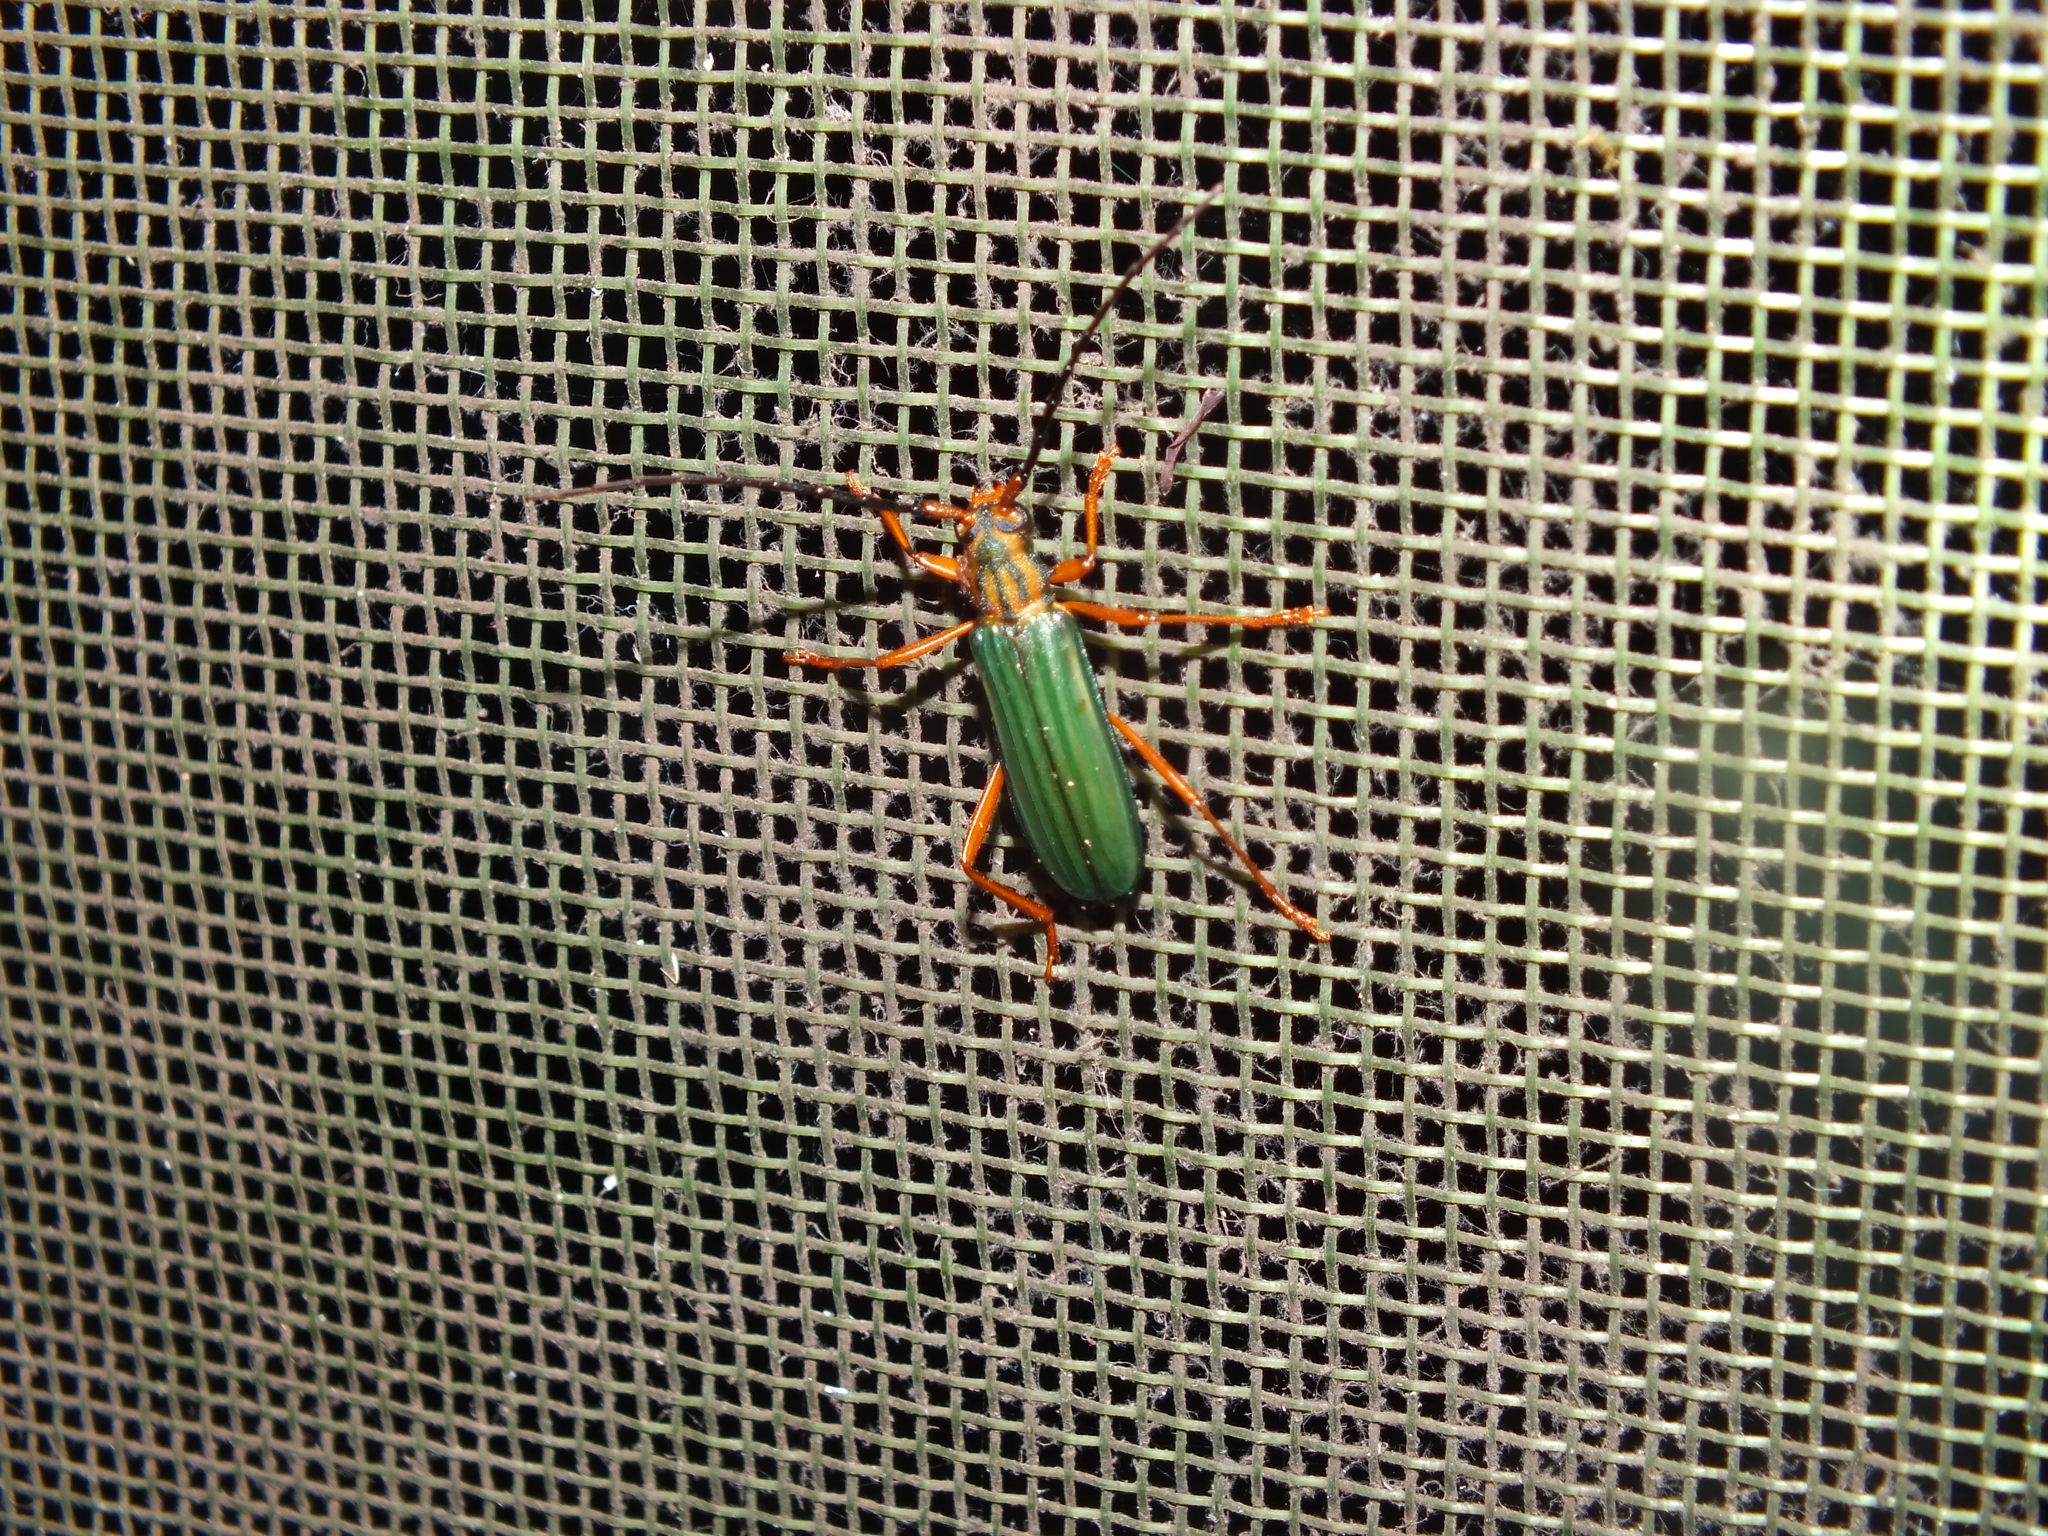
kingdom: Animalia
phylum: Arthropoda
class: Insecta
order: Coleoptera
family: Cerambycidae
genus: Chlorida
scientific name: Chlorida festiva
